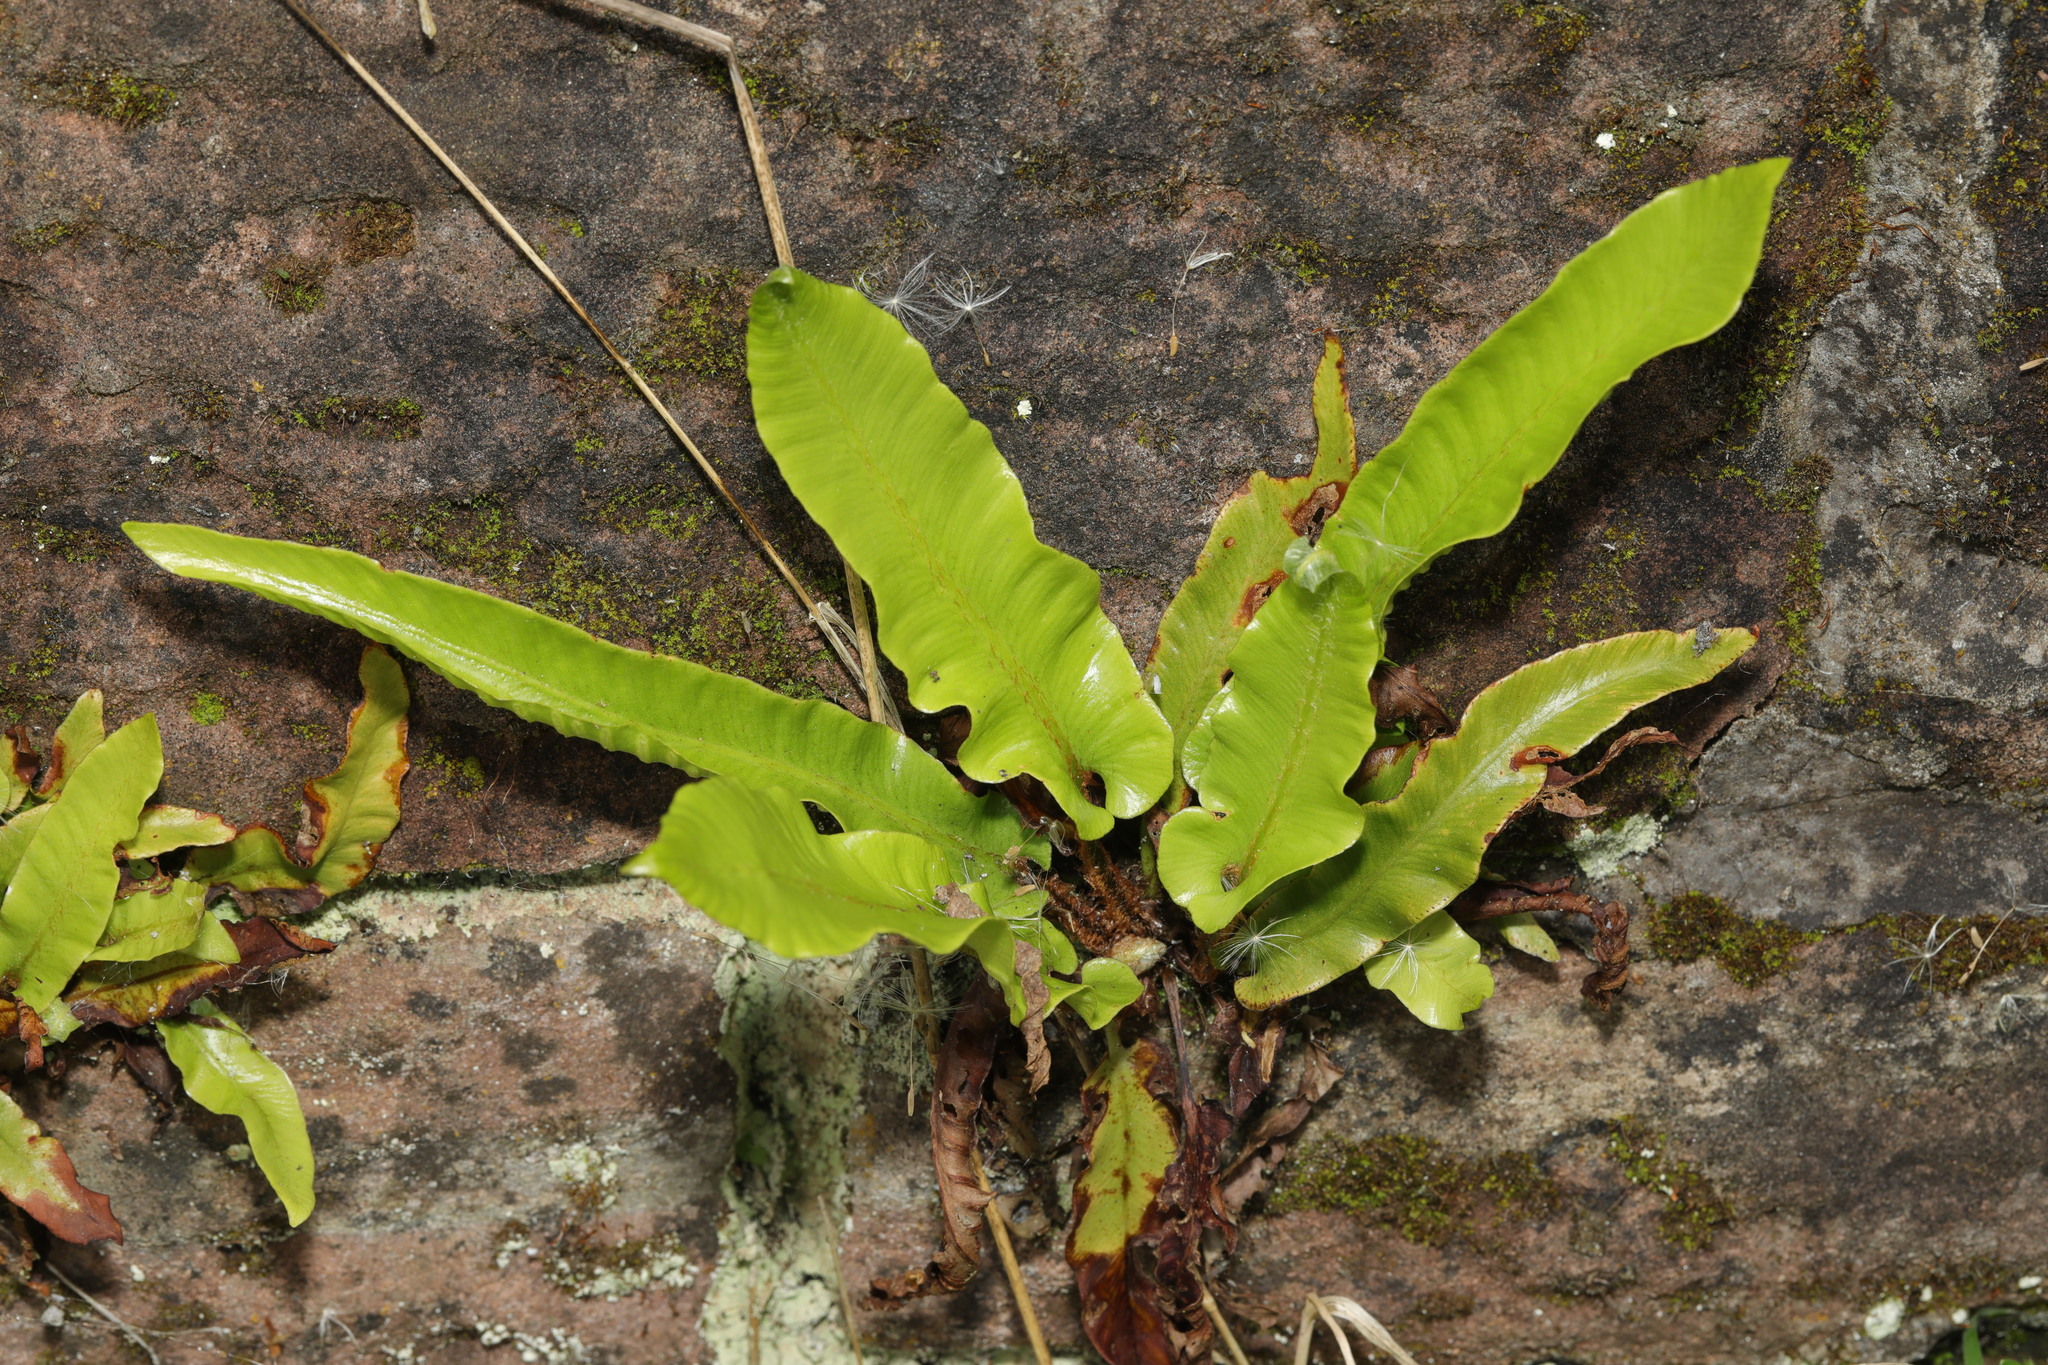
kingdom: Plantae
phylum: Tracheophyta
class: Polypodiopsida
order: Polypodiales
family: Aspleniaceae
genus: Asplenium
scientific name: Asplenium scolopendrium
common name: Hart's-tongue fern
